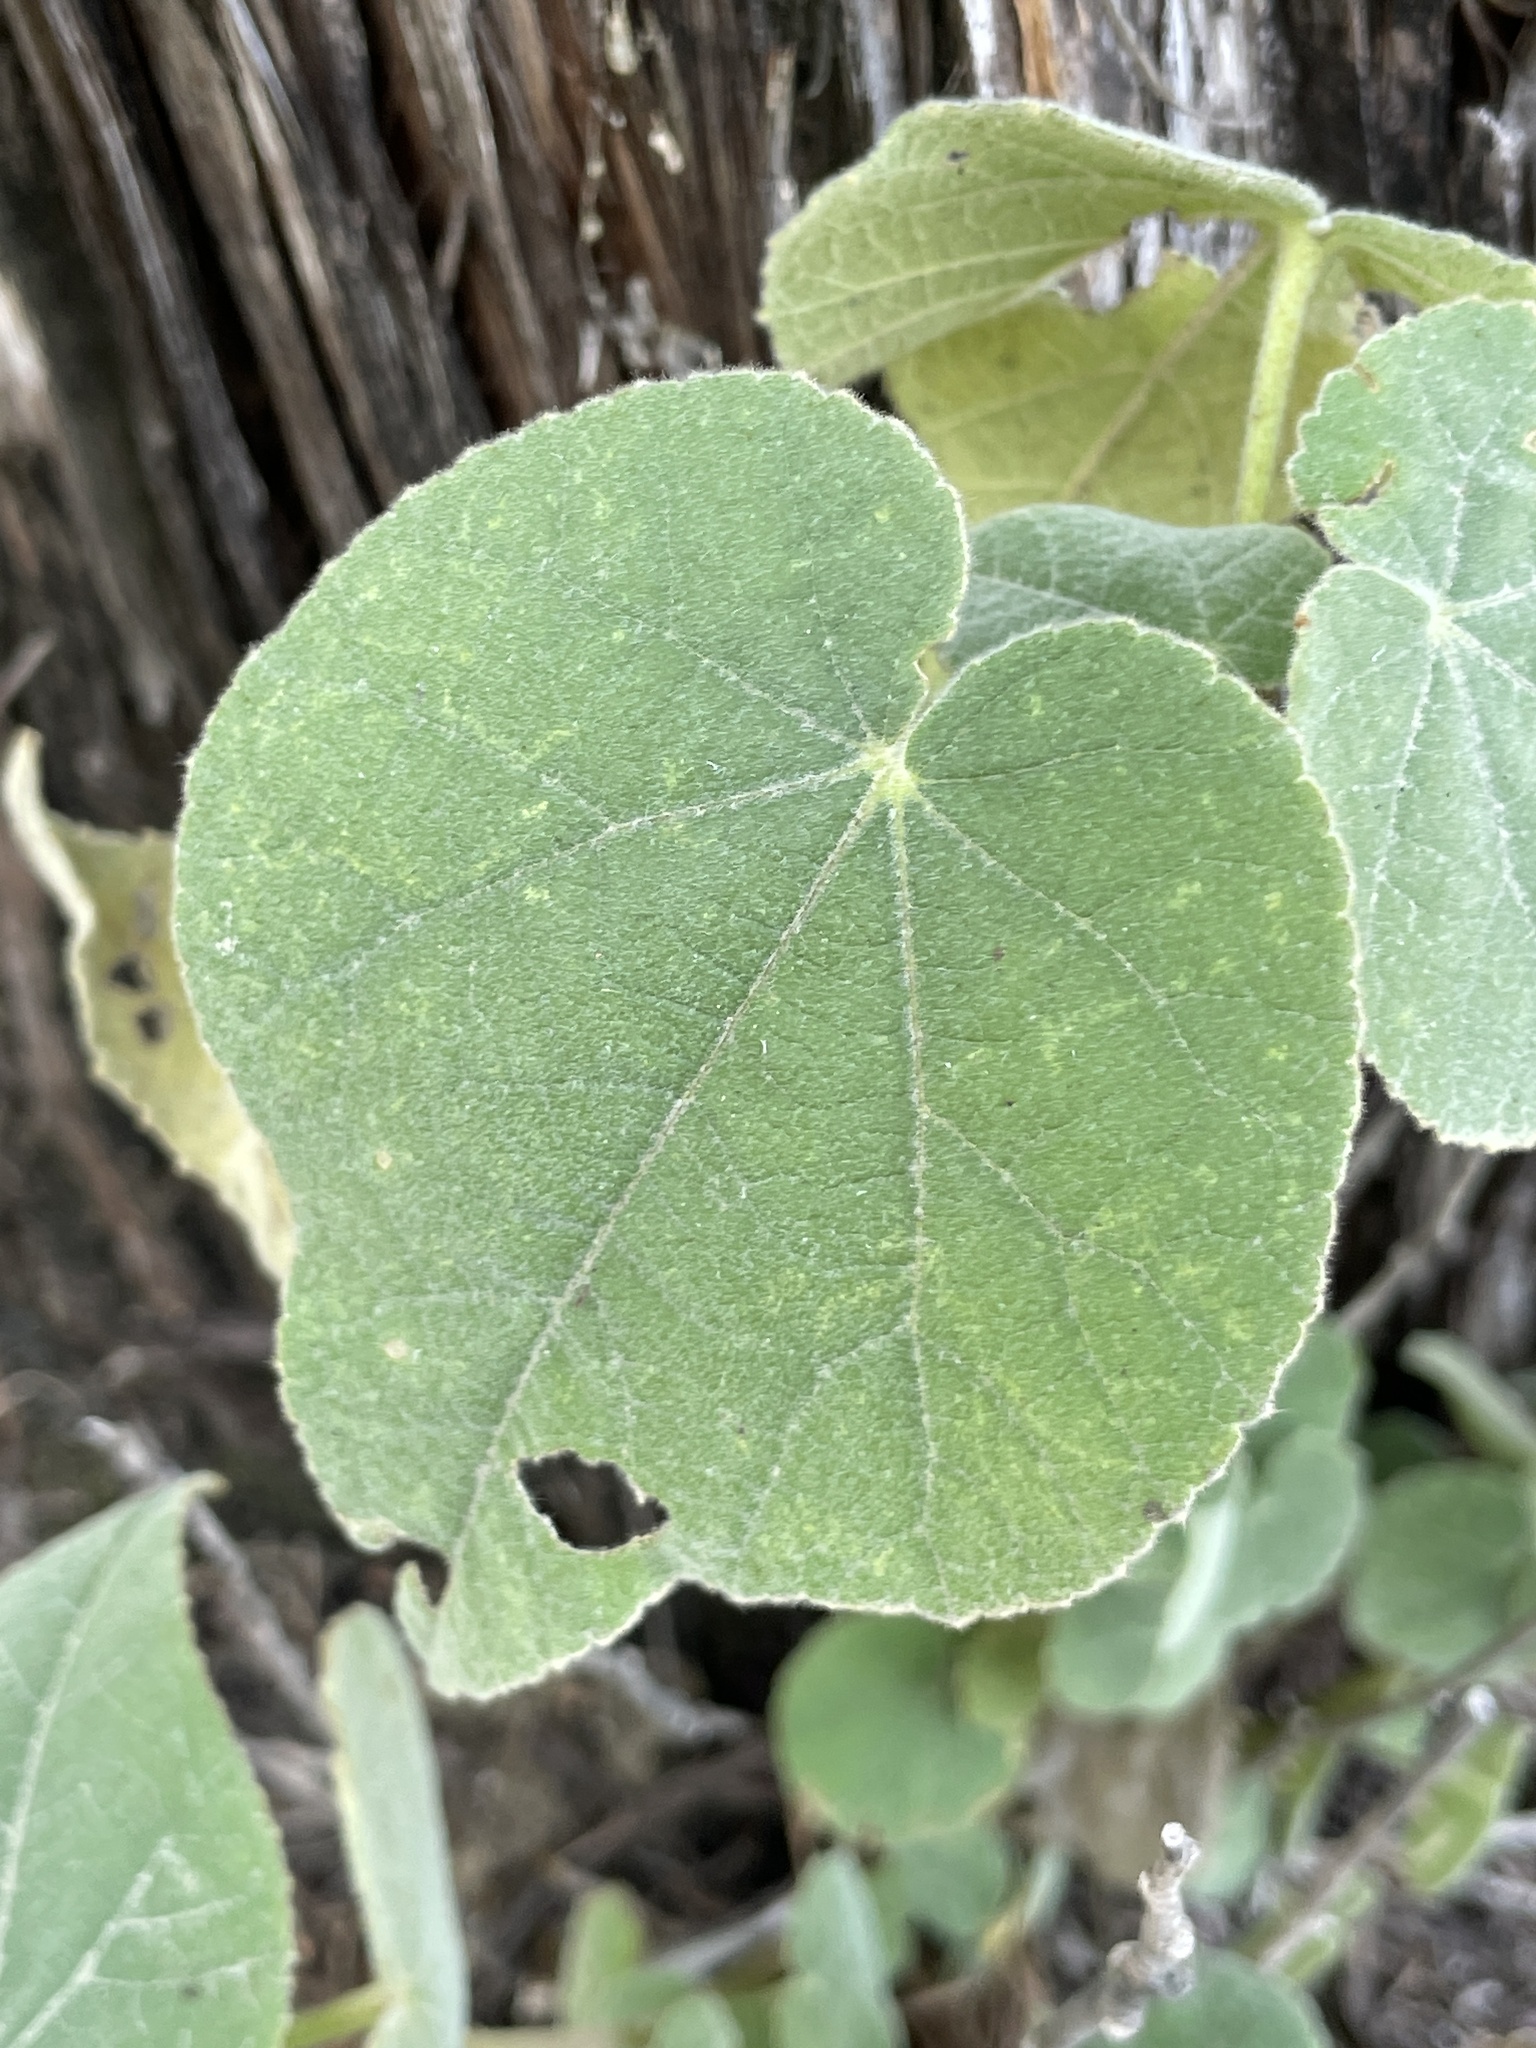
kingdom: Plantae
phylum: Tracheophyta
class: Magnoliopsida
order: Malvales
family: Malvaceae
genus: Allowissadula
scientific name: Allowissadula holosericea
